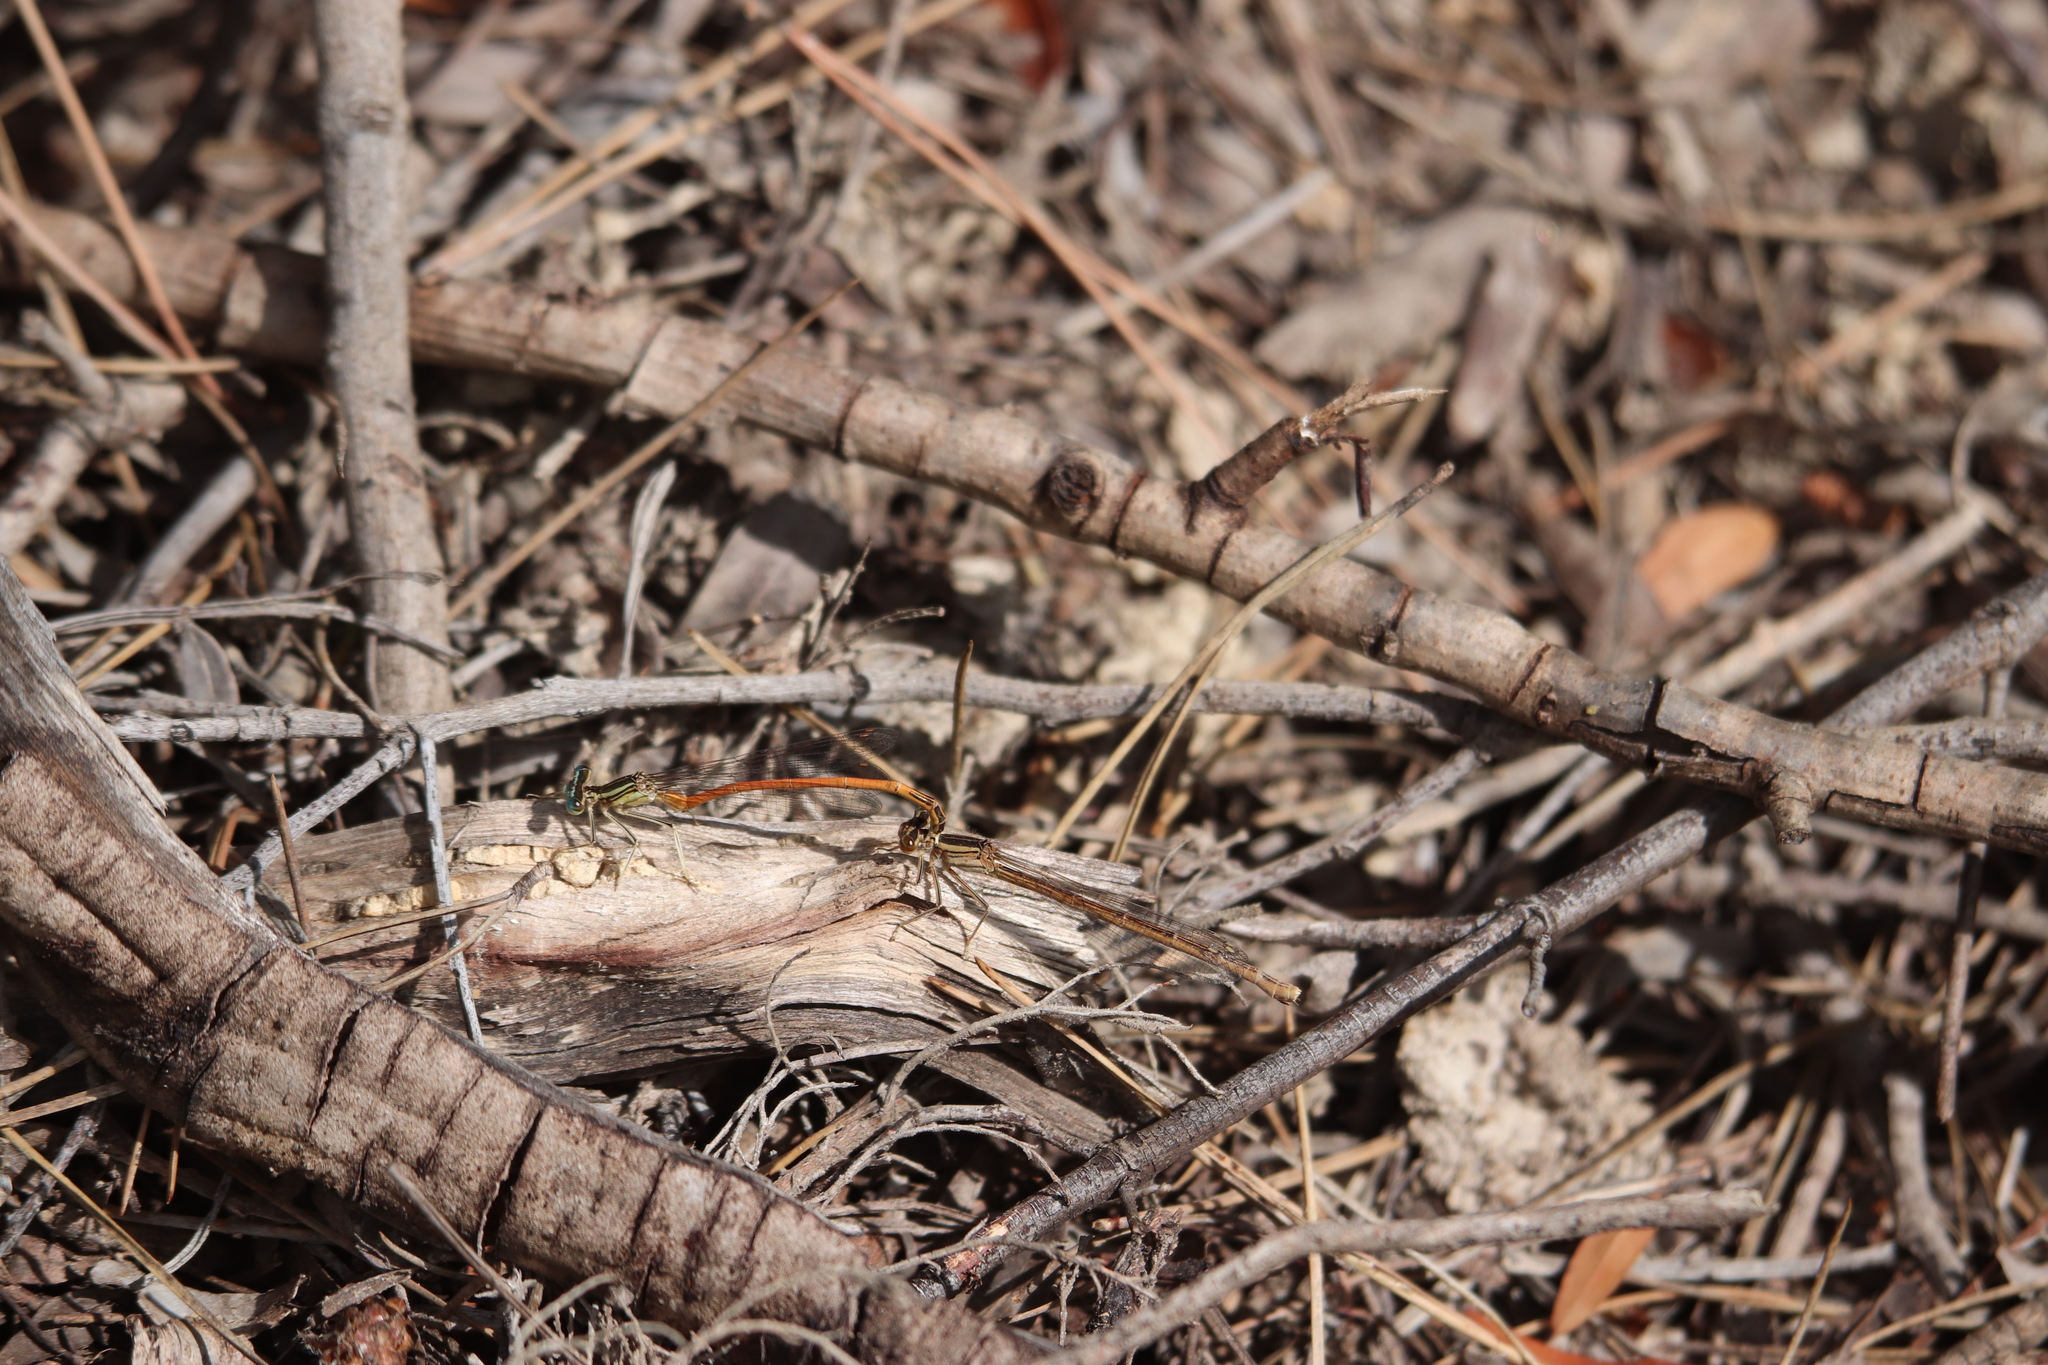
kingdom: Animalia
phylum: Arthropoda
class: Insecta
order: Odonata
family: Platycnemididae
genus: Platycnemis
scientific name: Platycnemis acutipennis
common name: Orange featherleg
